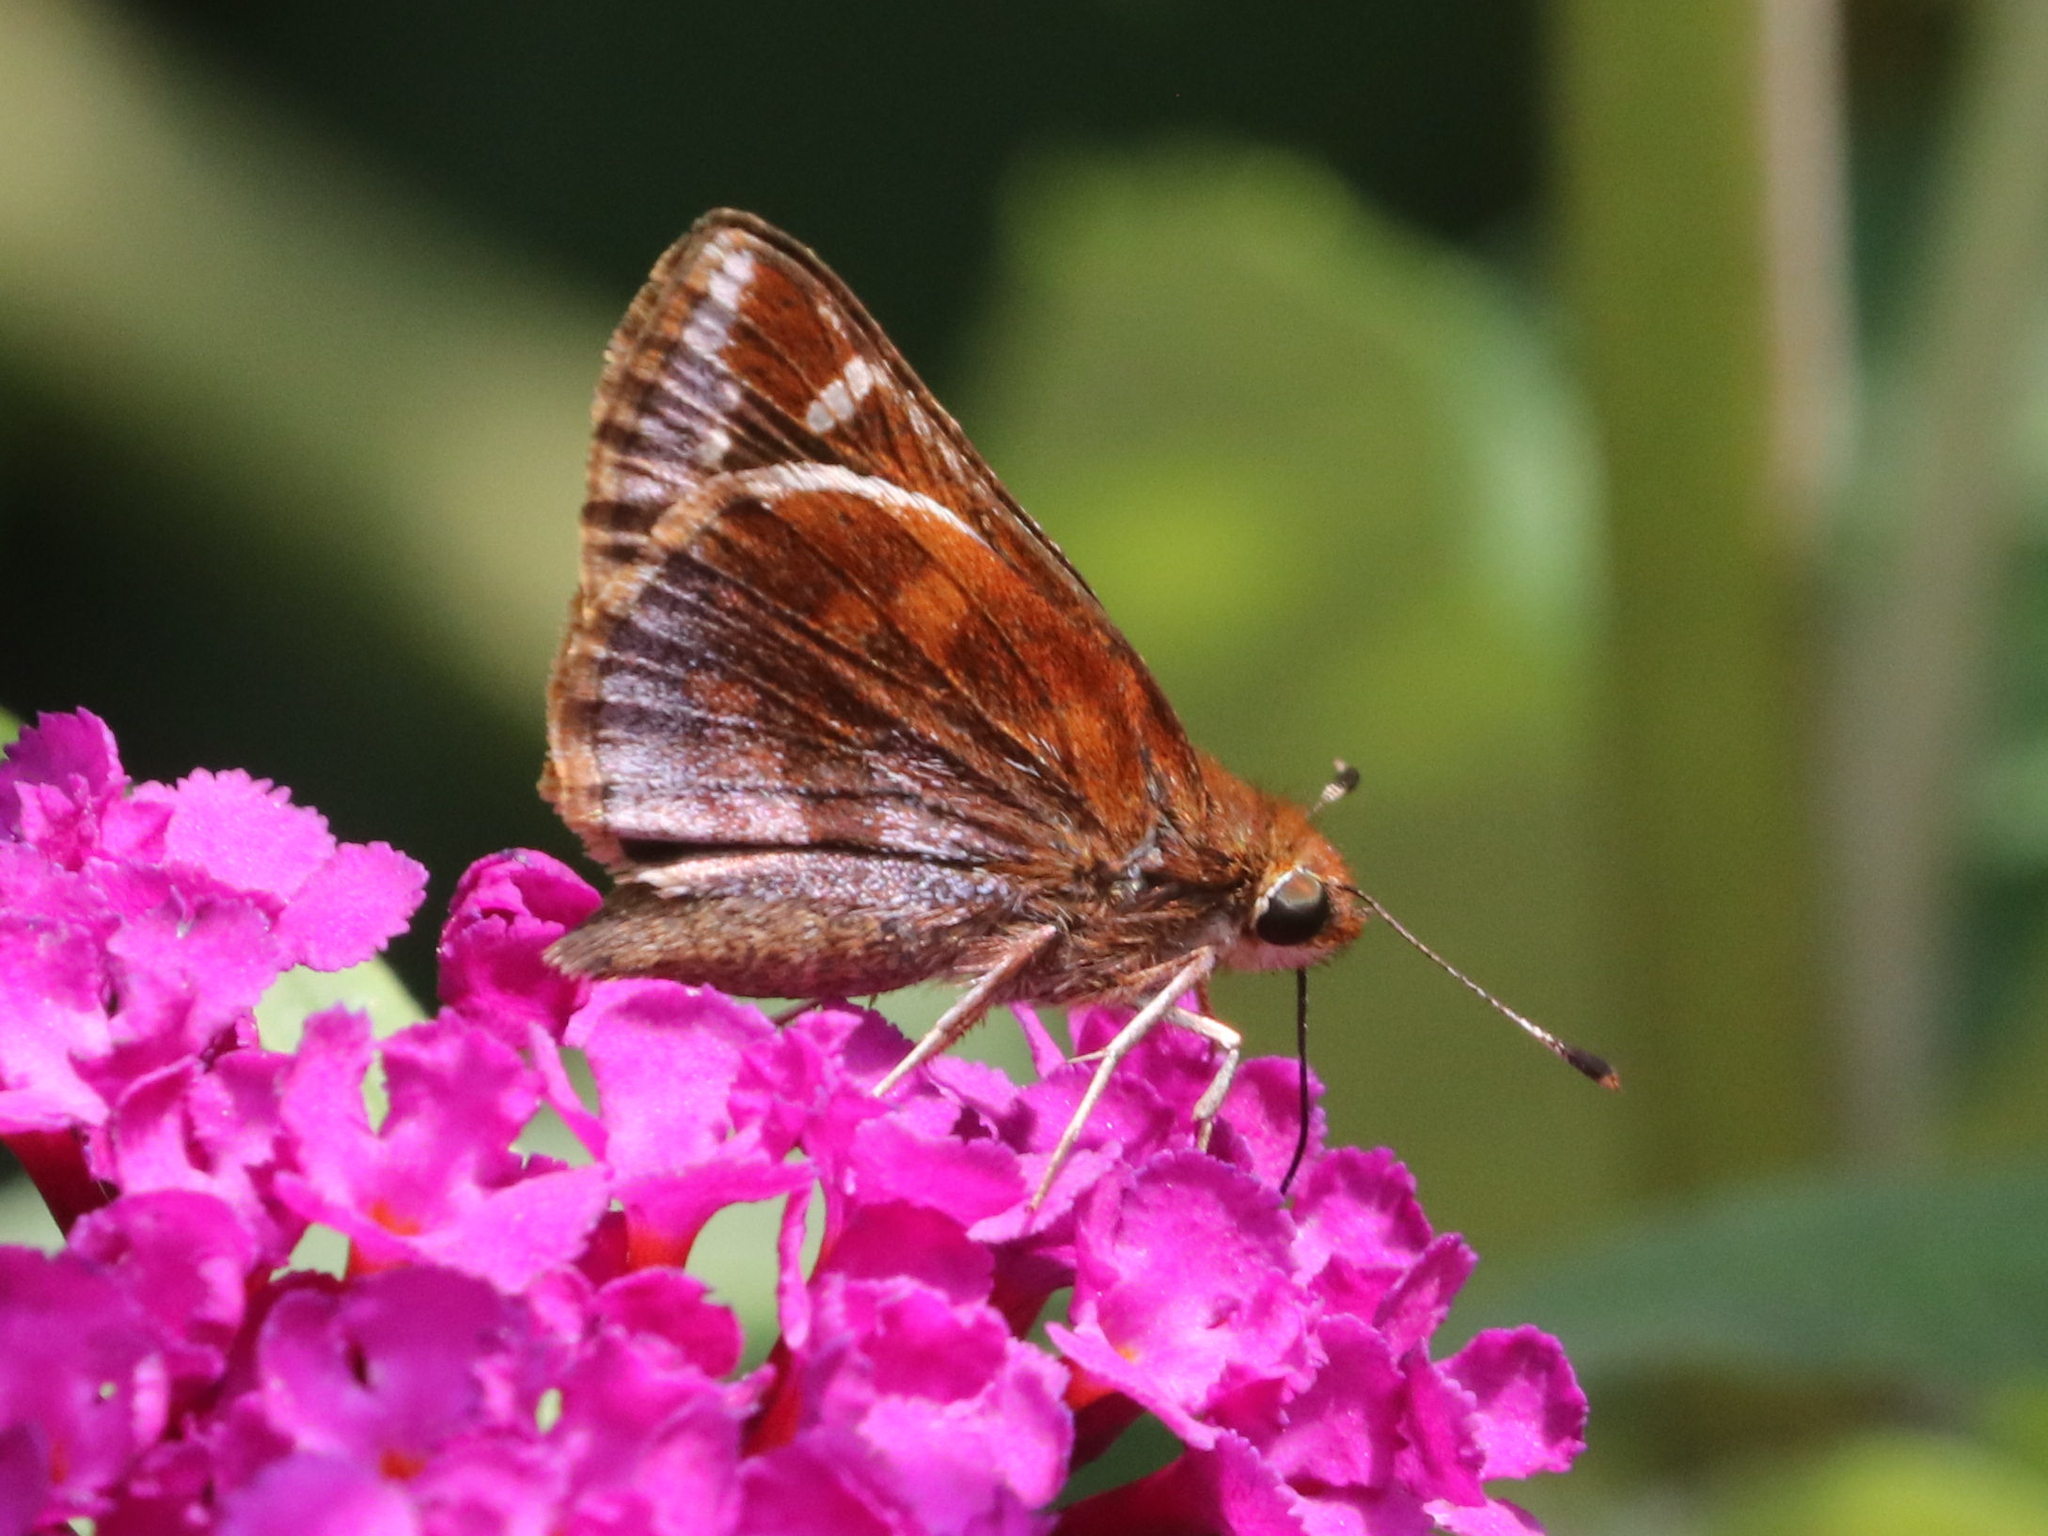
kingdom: Animalia
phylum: Arthropoda
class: Insecta
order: Lepidoptera
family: Hesperiidae
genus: Lon
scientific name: Lon zabulon
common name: Zabulon skipper
